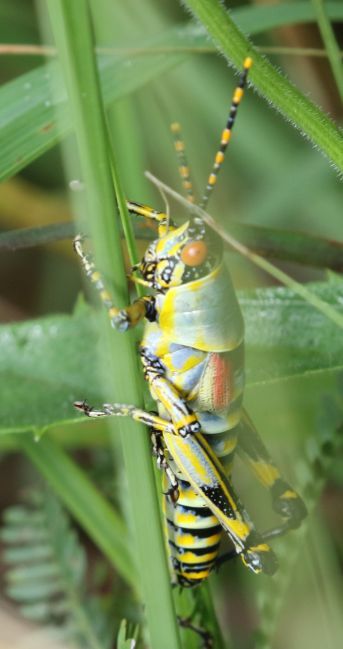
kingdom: Animalia
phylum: Arthropoda
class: Insecta
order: Orthoptera
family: Pyrgomorphidae
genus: Zonocerus
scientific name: Zonocerus elegans
